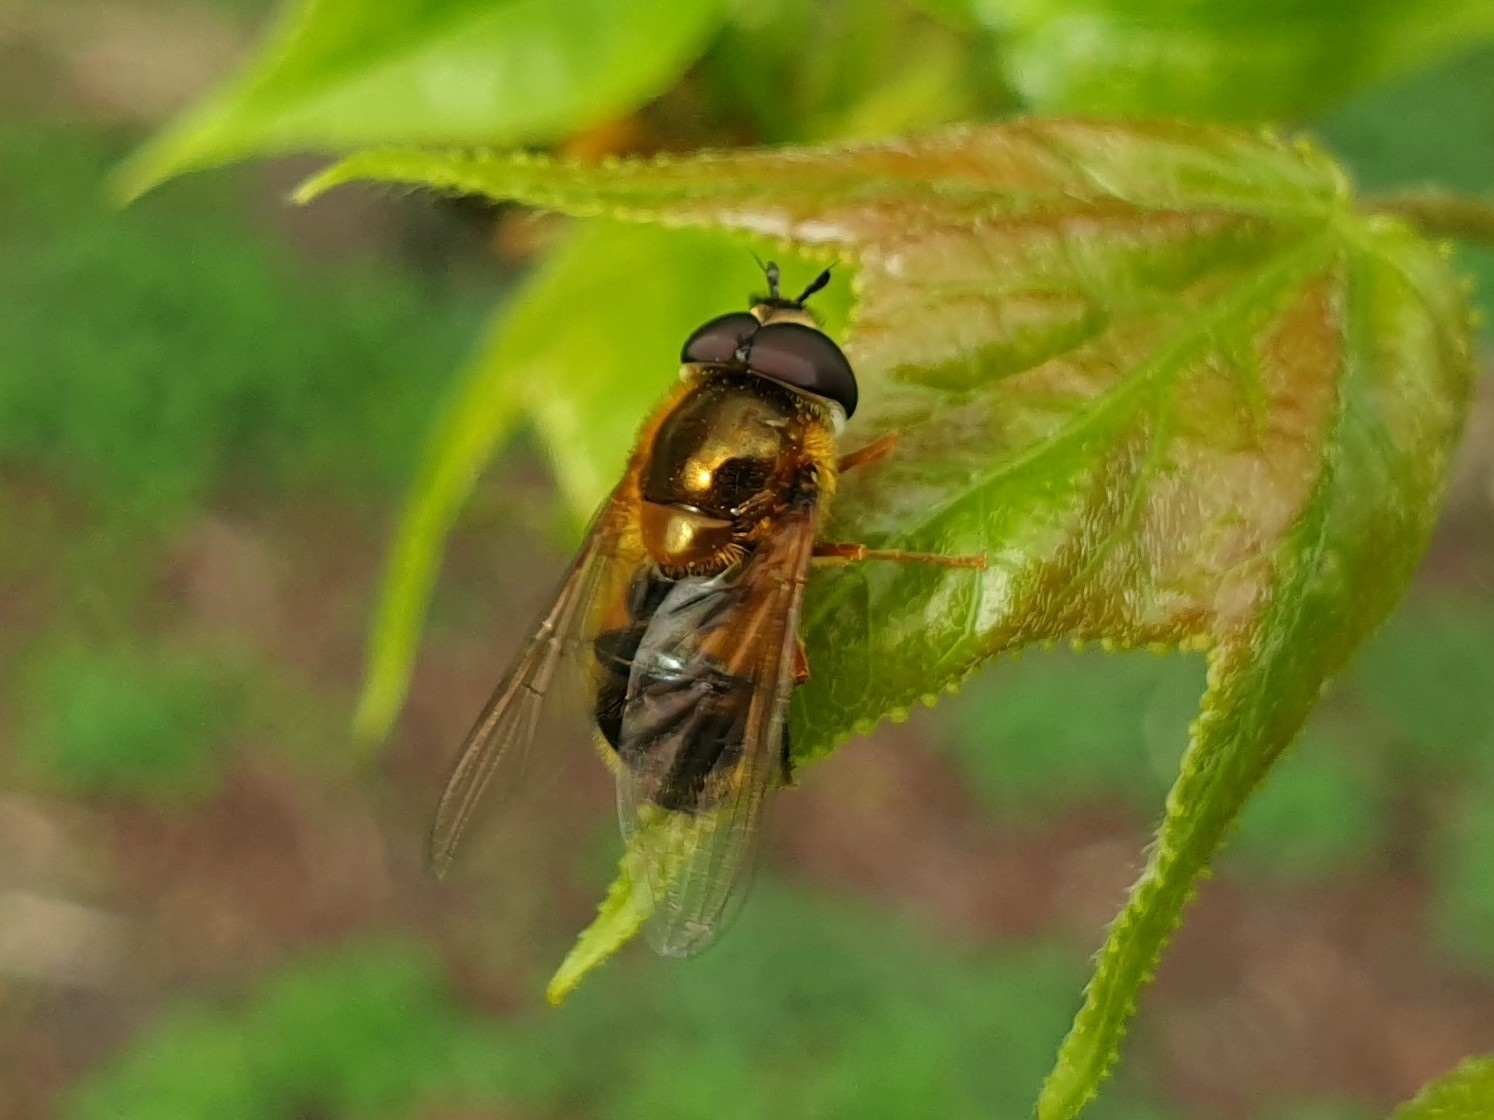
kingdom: Animalia
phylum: Arthropoda
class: Insecta
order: Diptera
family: Syrphidae
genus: Epistrophe
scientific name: Epistrophe eligans
